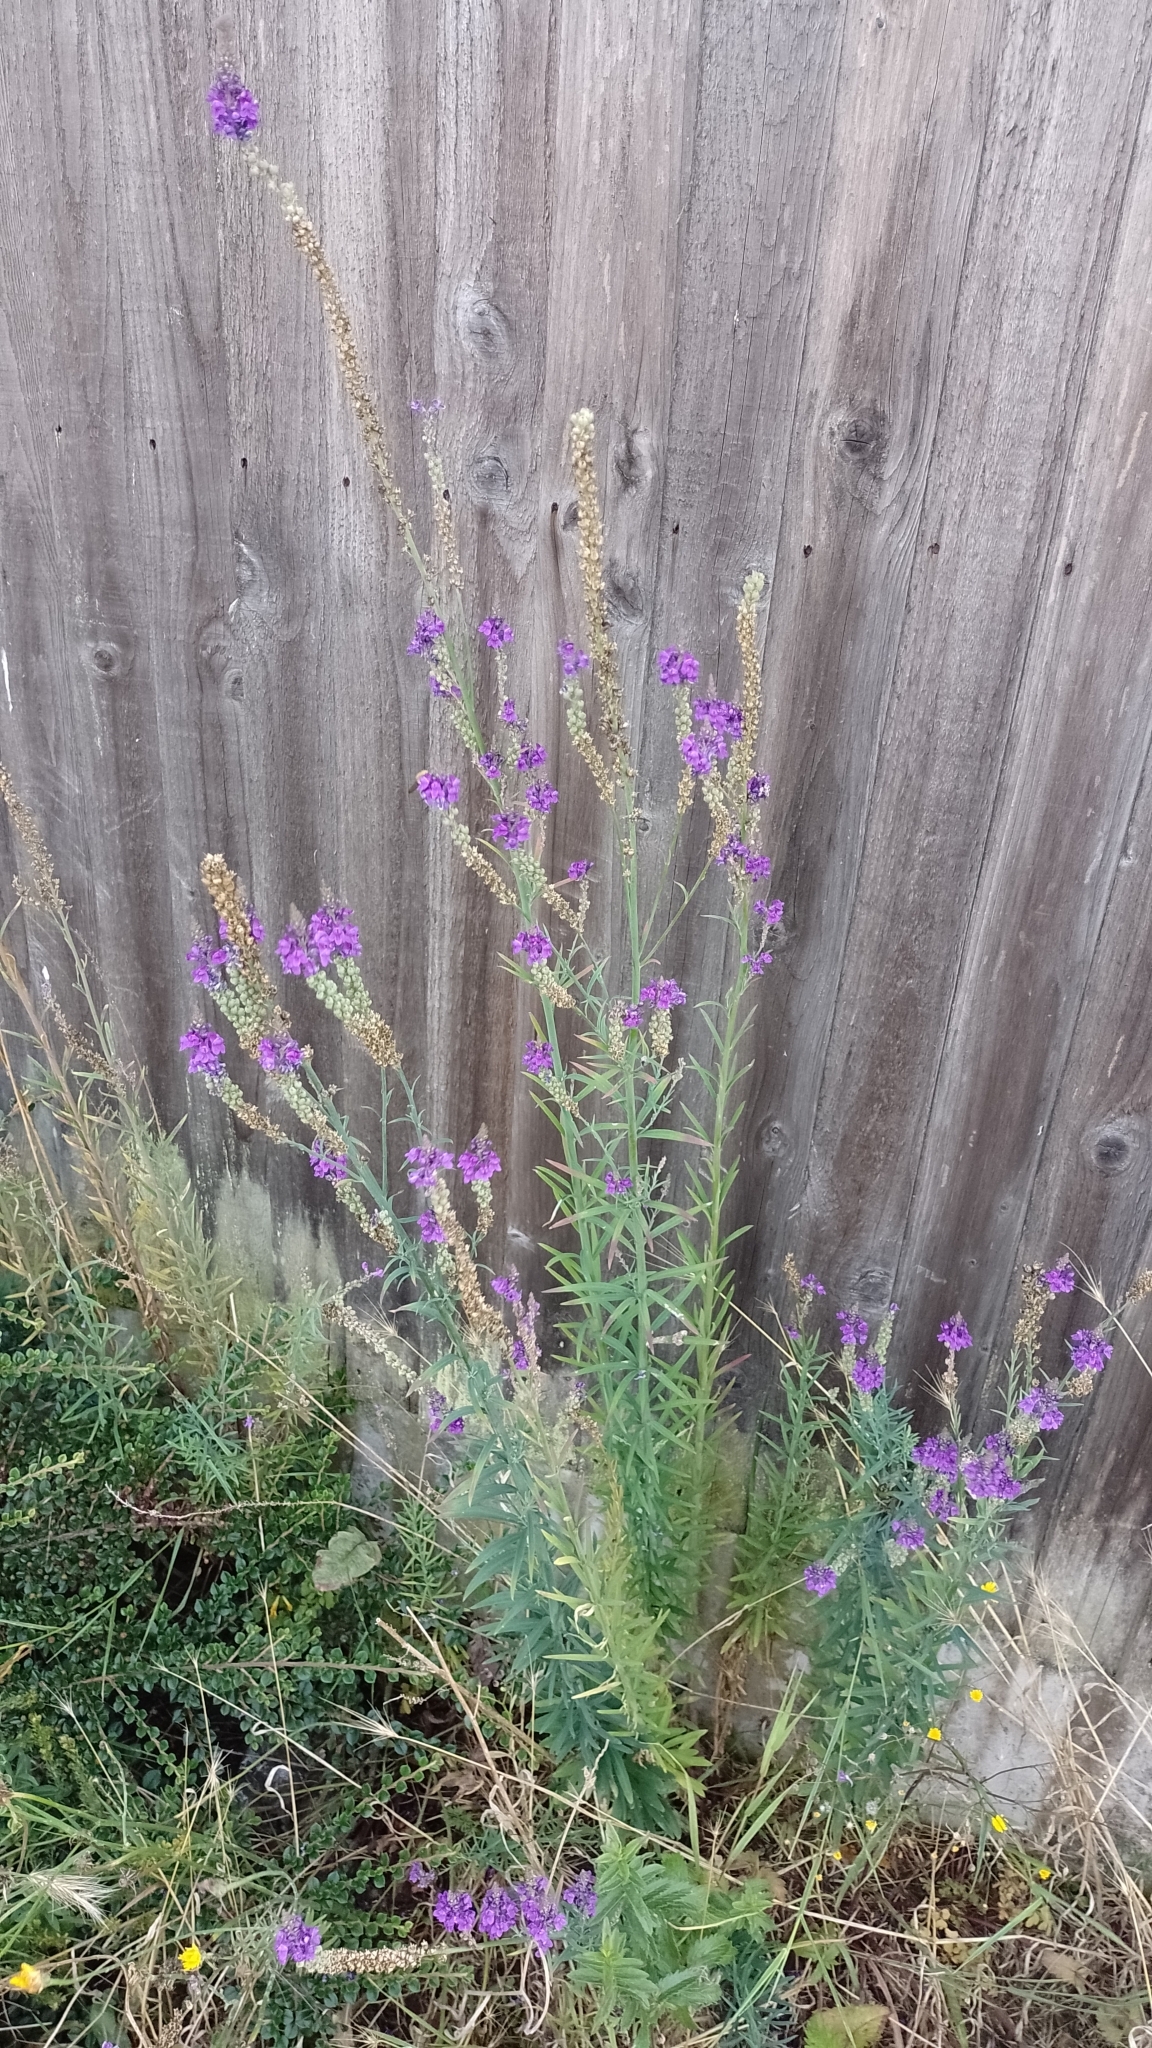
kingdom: Plantae
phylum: Tracheophyta
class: Magnoliopsida
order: Lamiales
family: Plantaginaceae
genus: Linaria
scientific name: Linaria purpurea
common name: Purple toadflax
